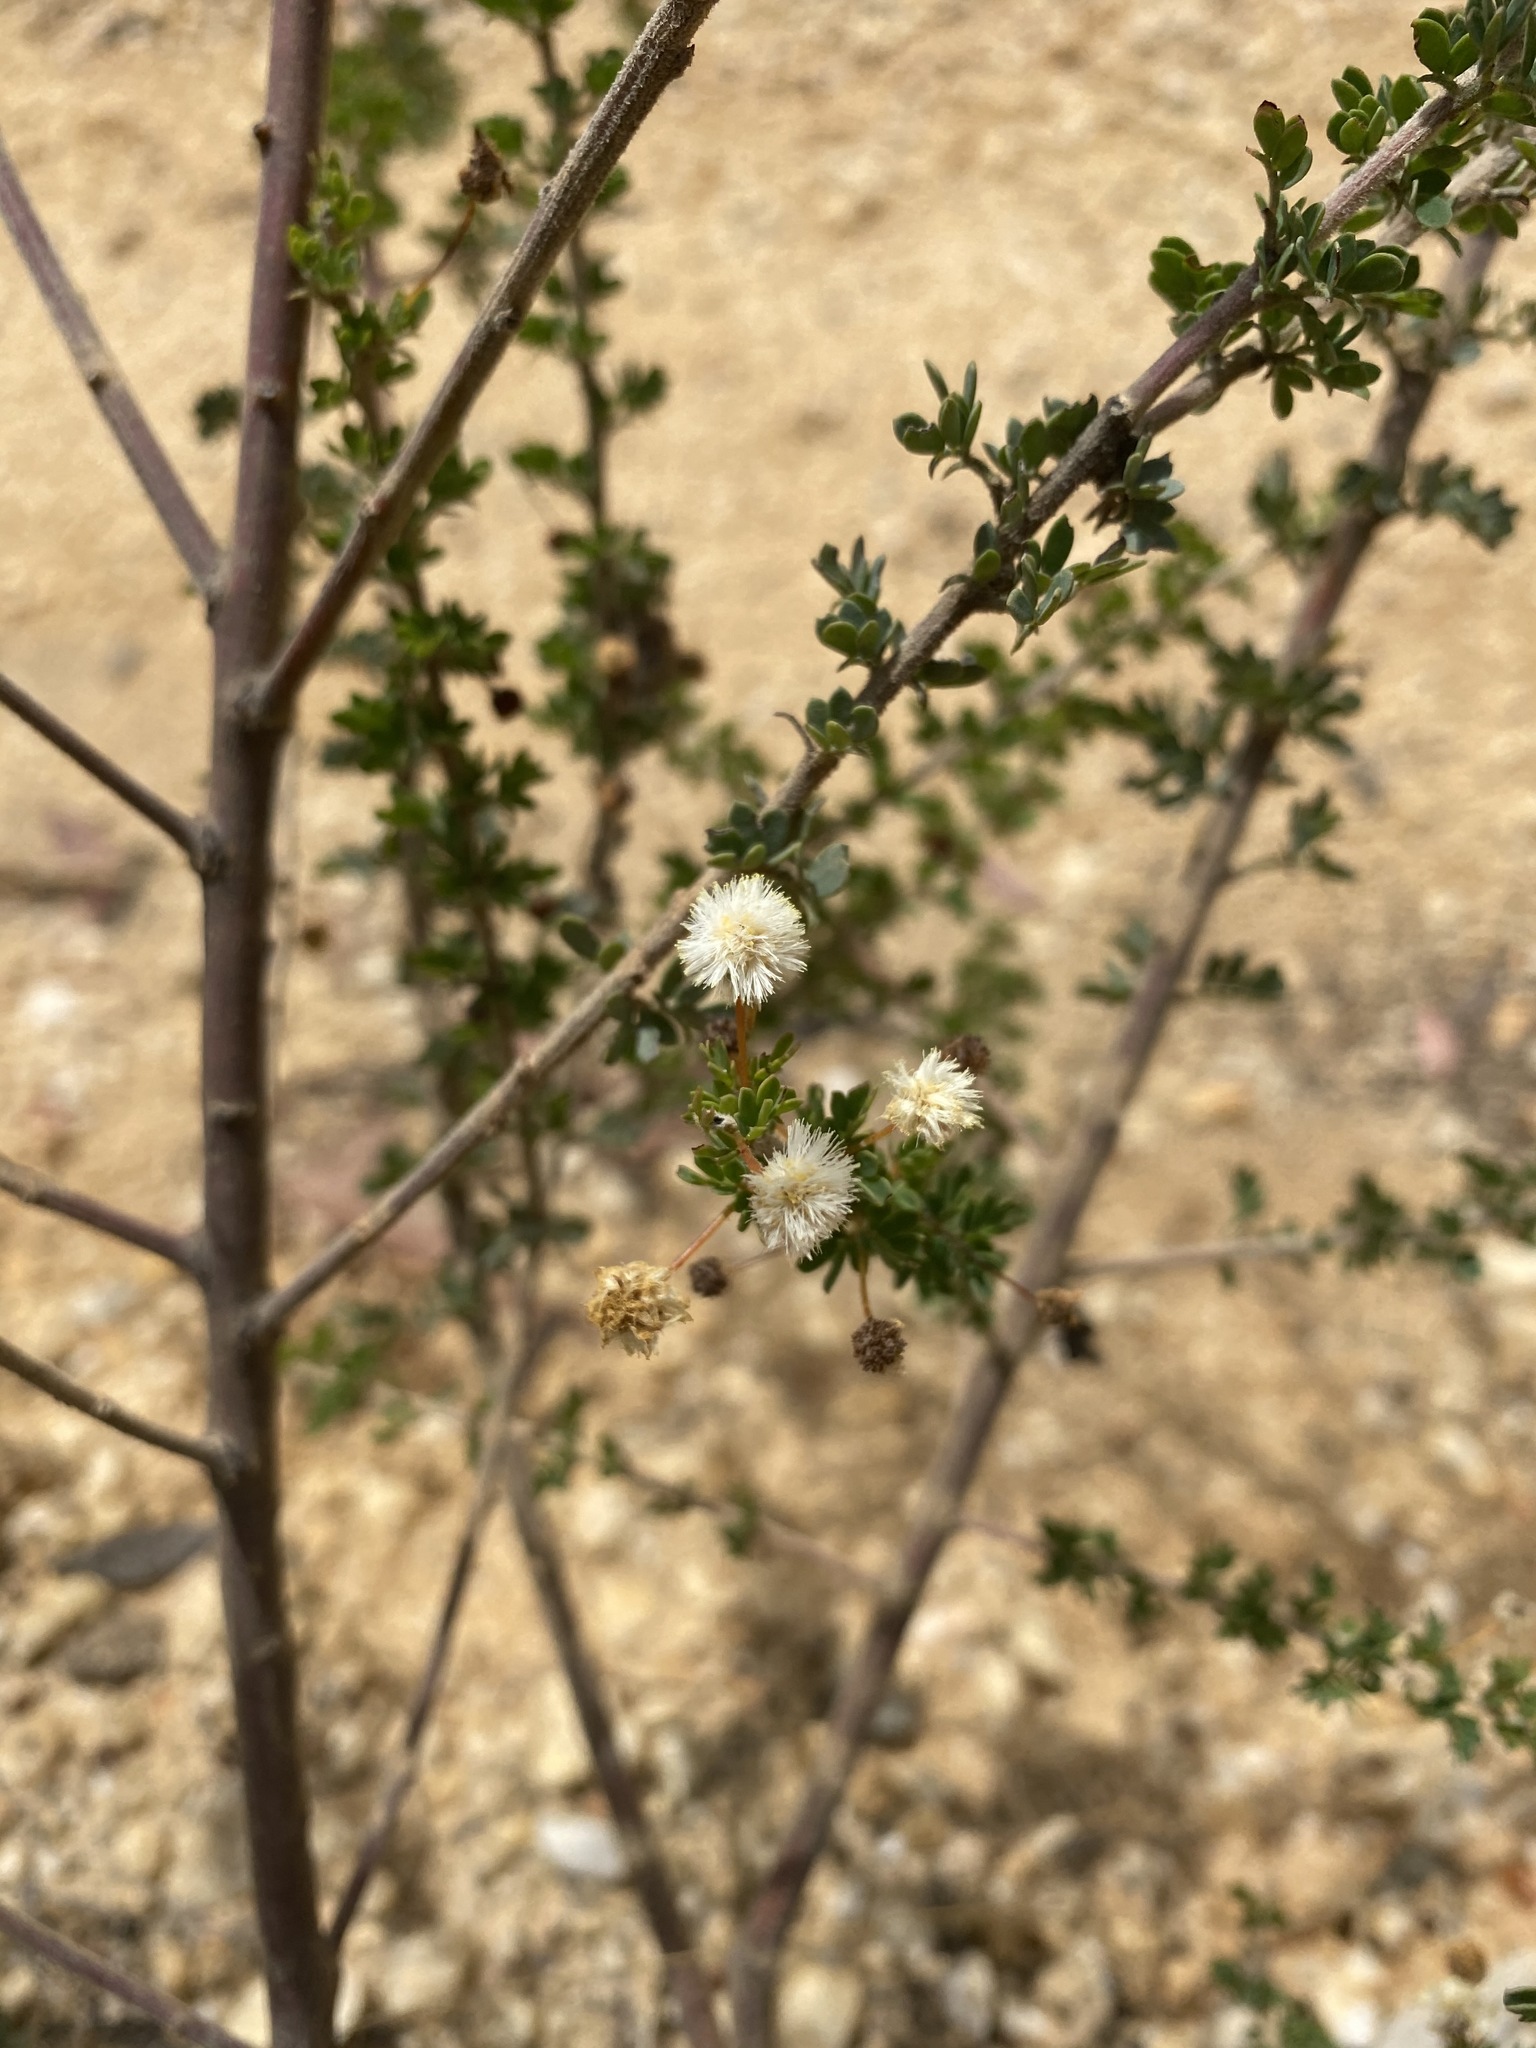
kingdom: Plantae
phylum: Tracheophyta
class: Magnoliopsida
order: Fabales
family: Fabaceae
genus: Acacia
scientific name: Acacia mitchellii
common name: Mitchell's wattle
